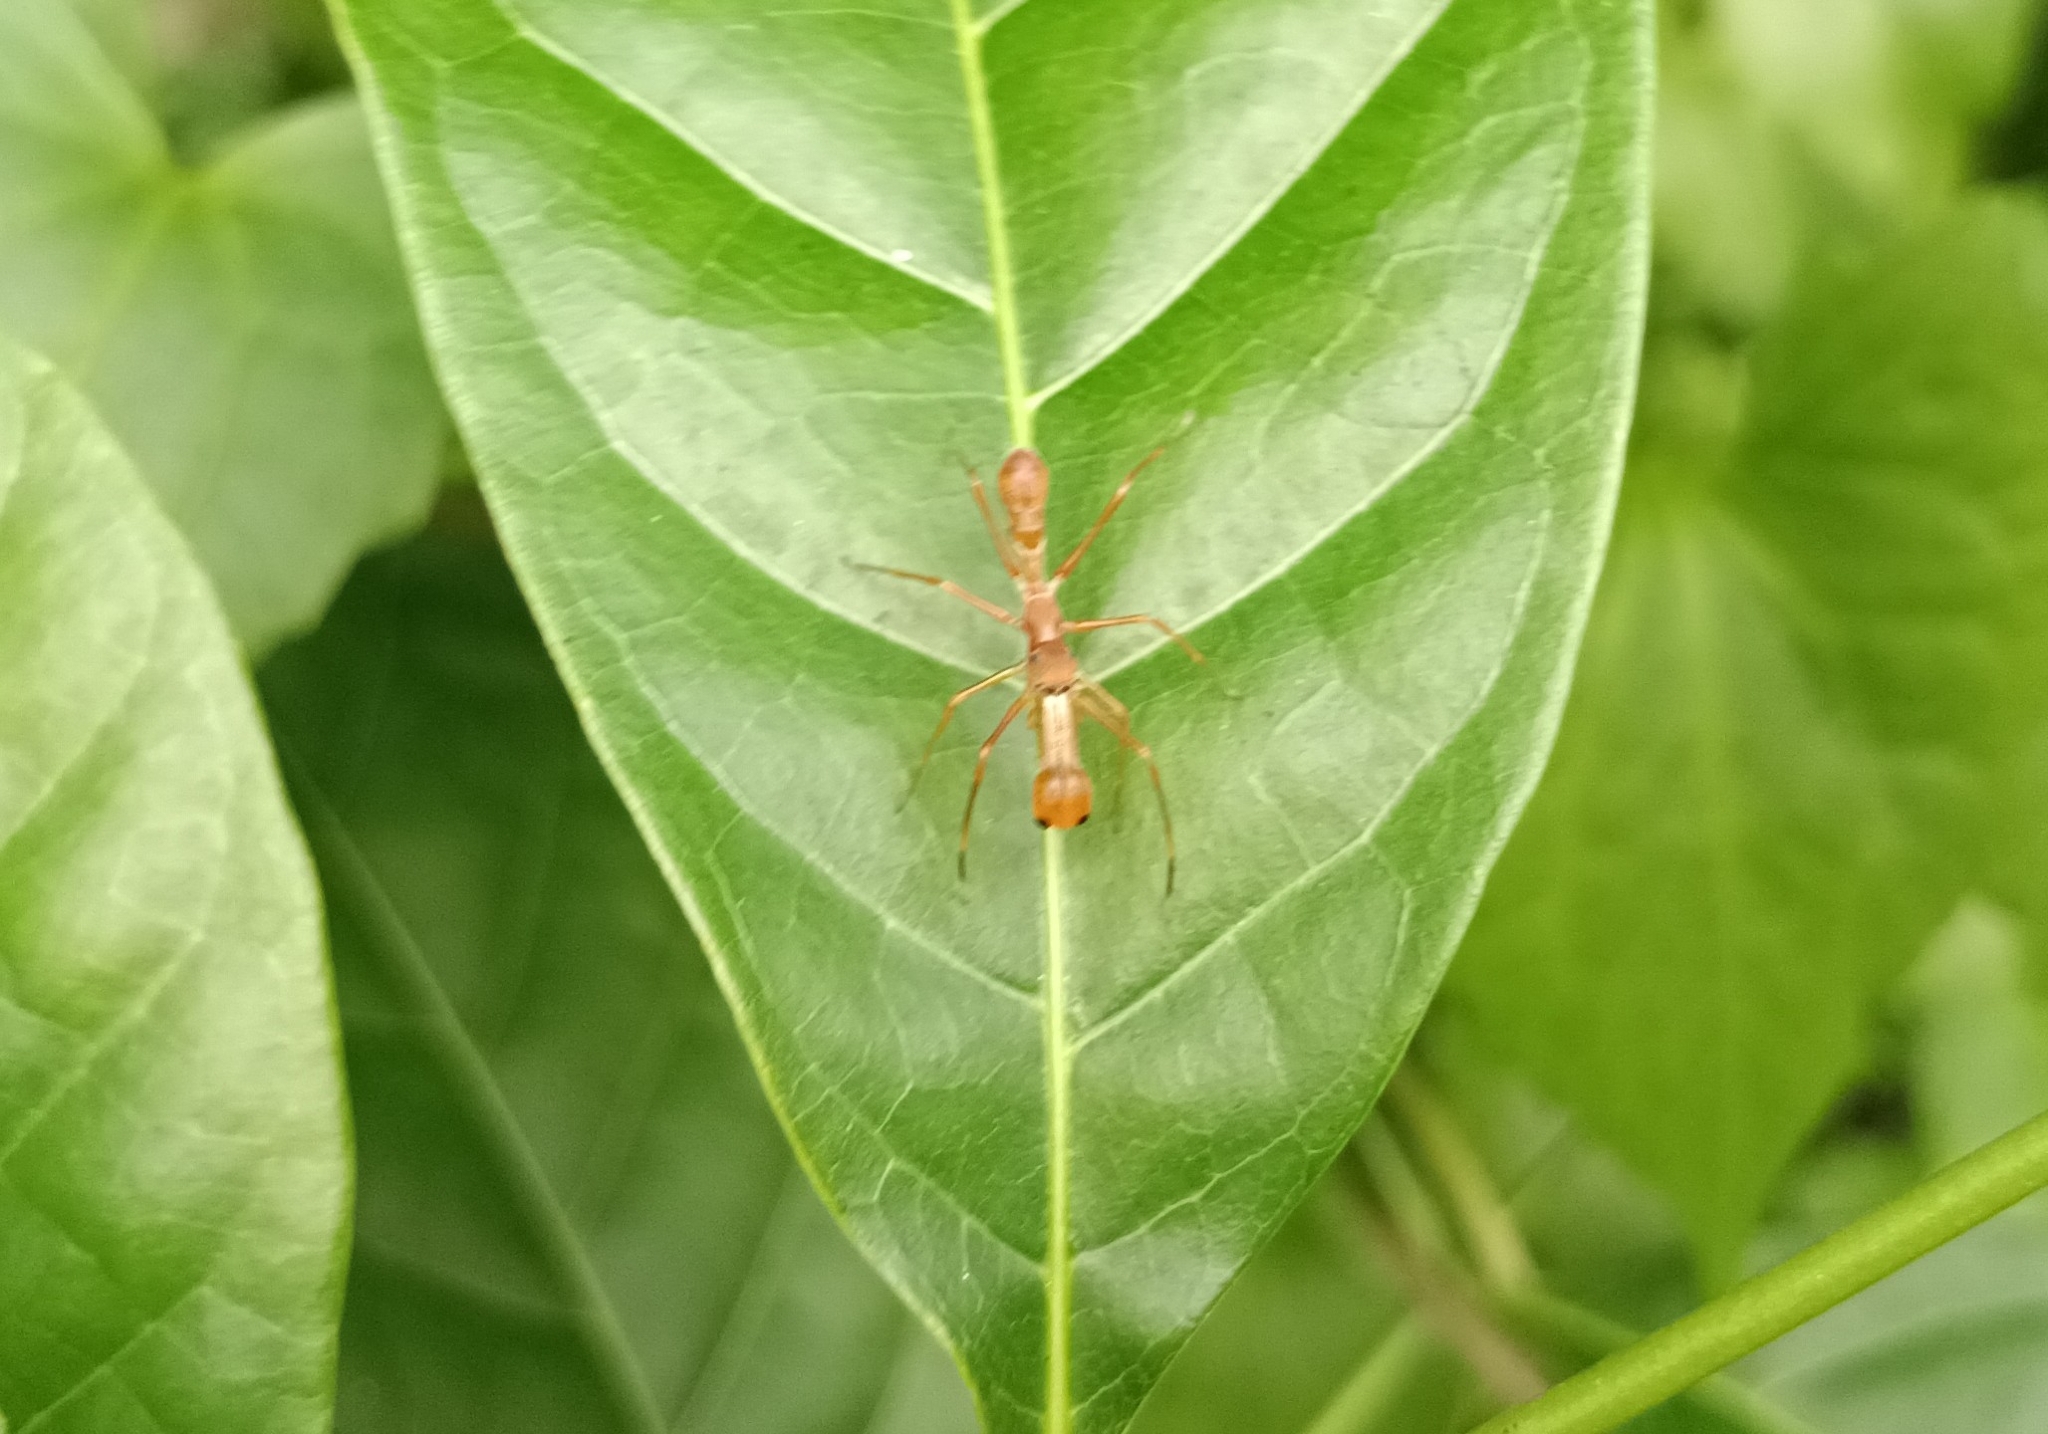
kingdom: Animalia
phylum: Arthropoda
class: Arachnida
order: Araneae
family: Salticidae
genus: Myrmaplata
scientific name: Myrmaplata plataleoides
